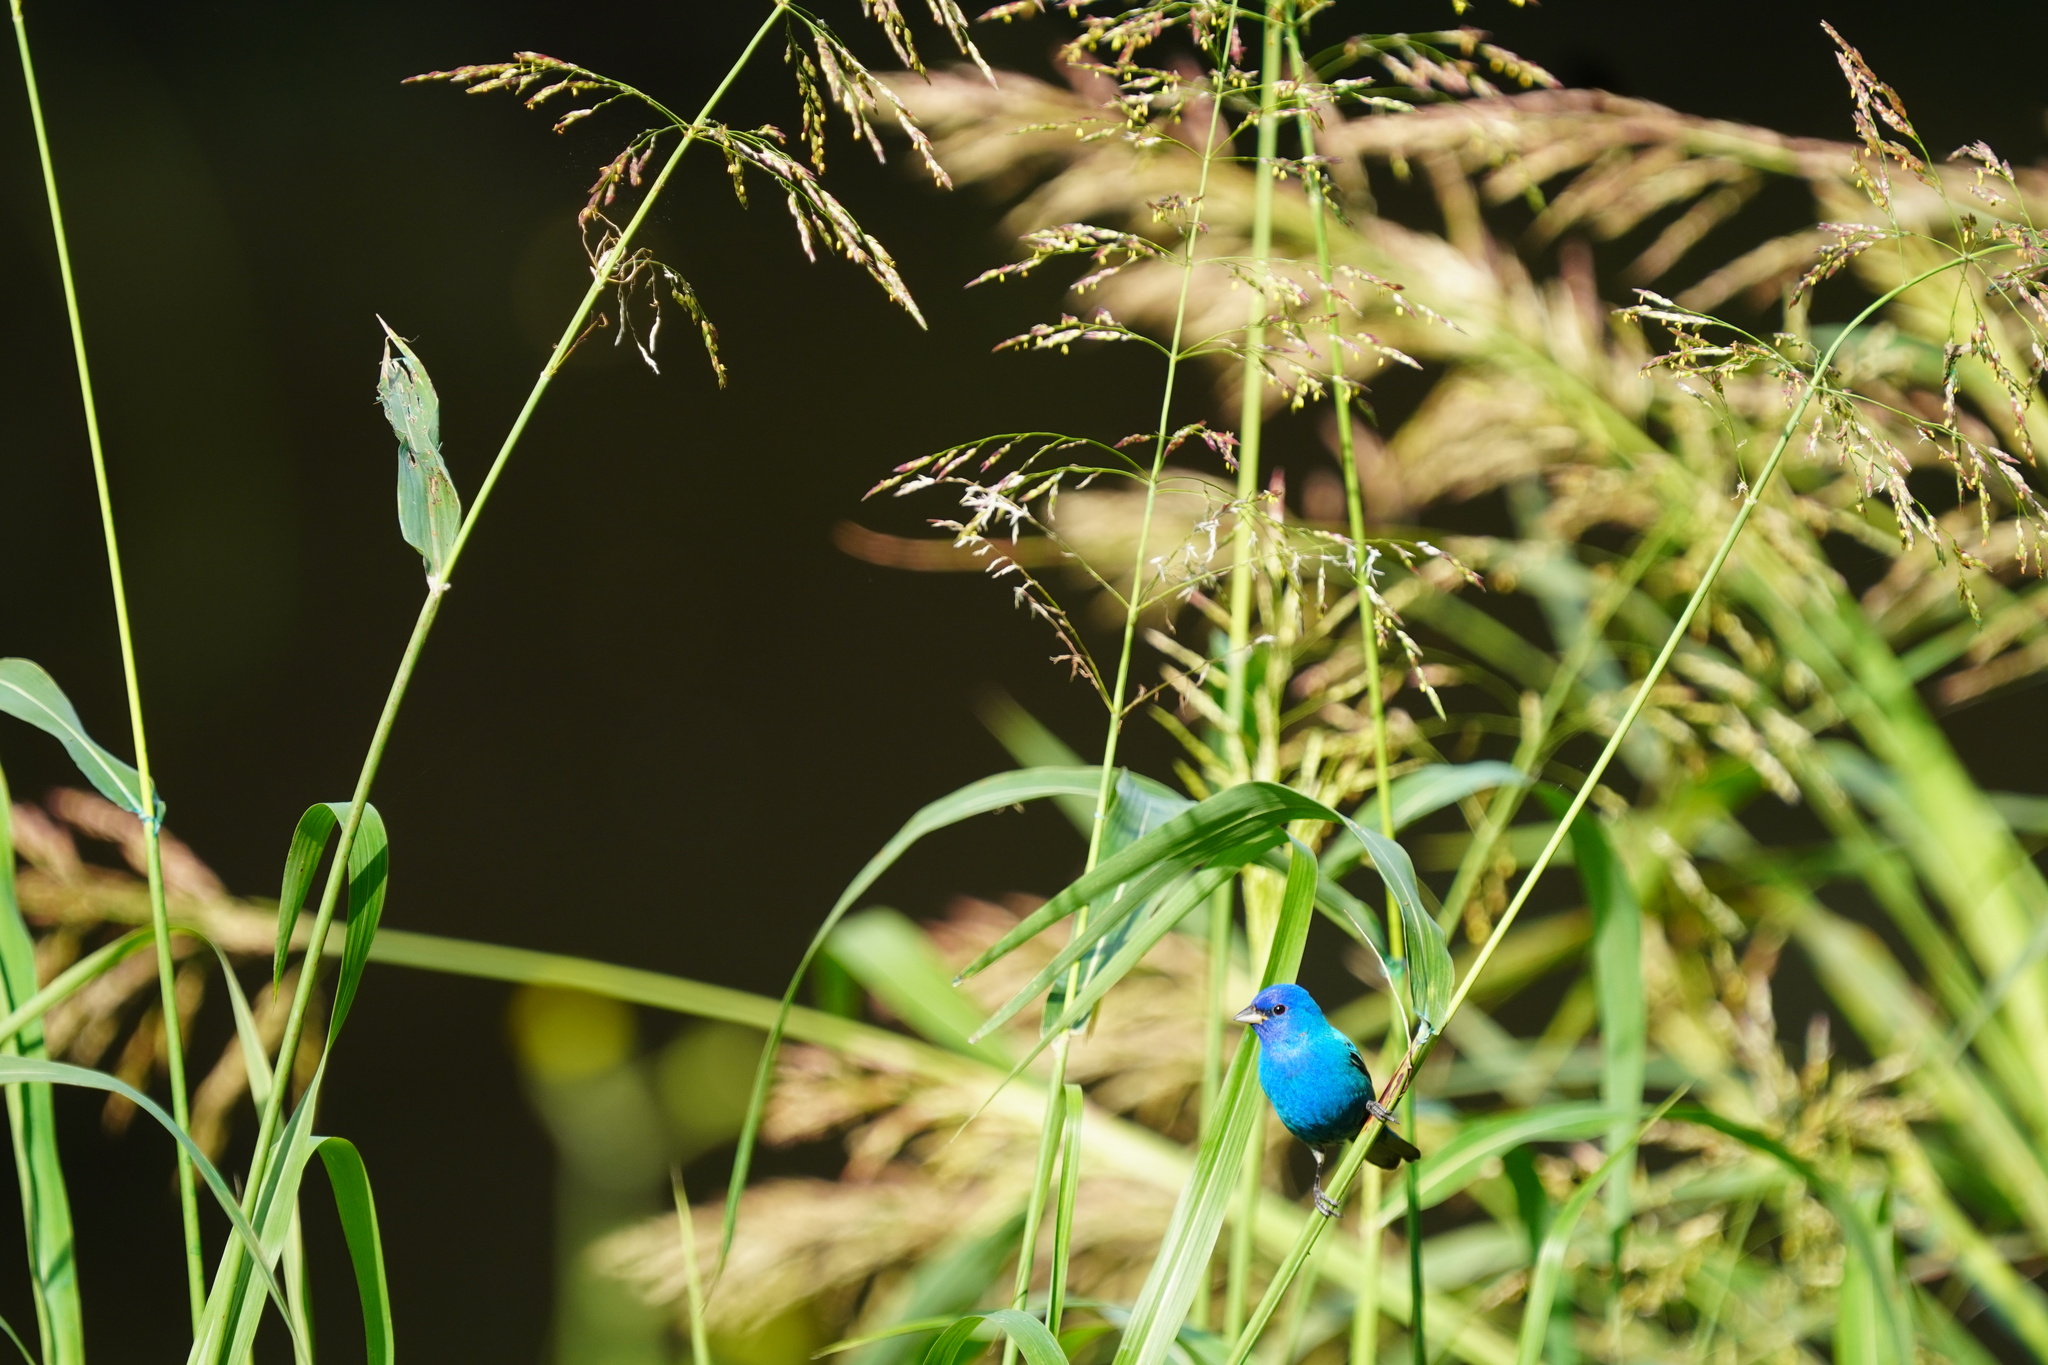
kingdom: Animalia
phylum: Chordata
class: Aves
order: Passeriformes
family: Cardinalidae
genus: Passerina
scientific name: Passerina cyanea
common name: Indigo bunting
